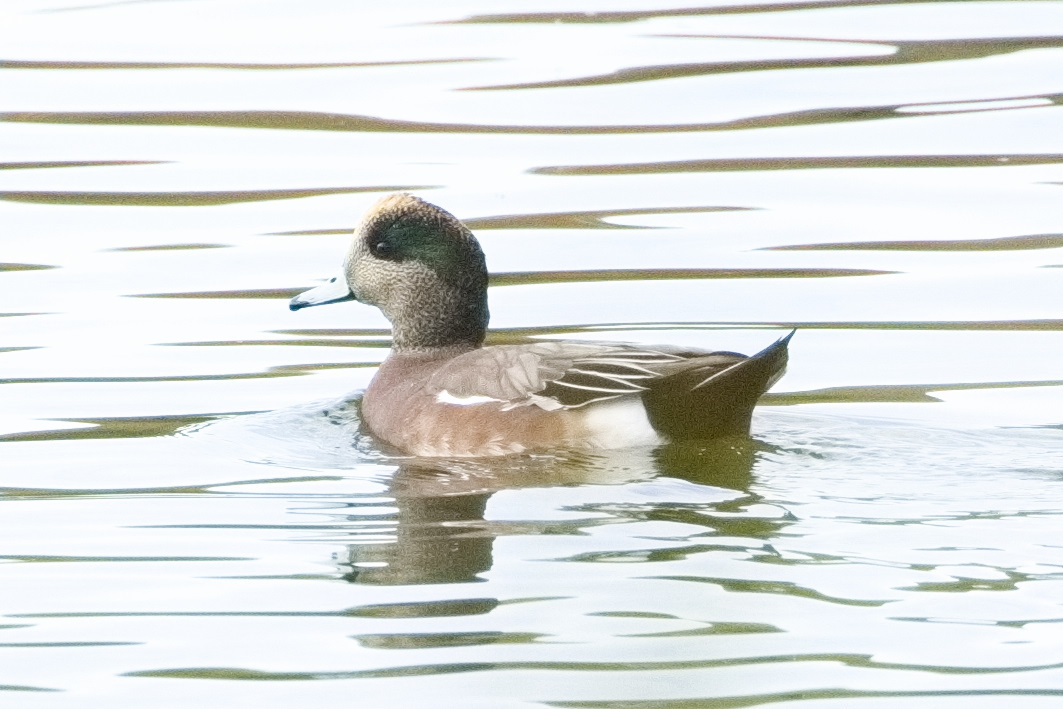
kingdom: Animalia
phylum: Chordata
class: Aves
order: Anseriformes
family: Anatidae
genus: Mareca
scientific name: Mareca americana
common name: American wigeon
